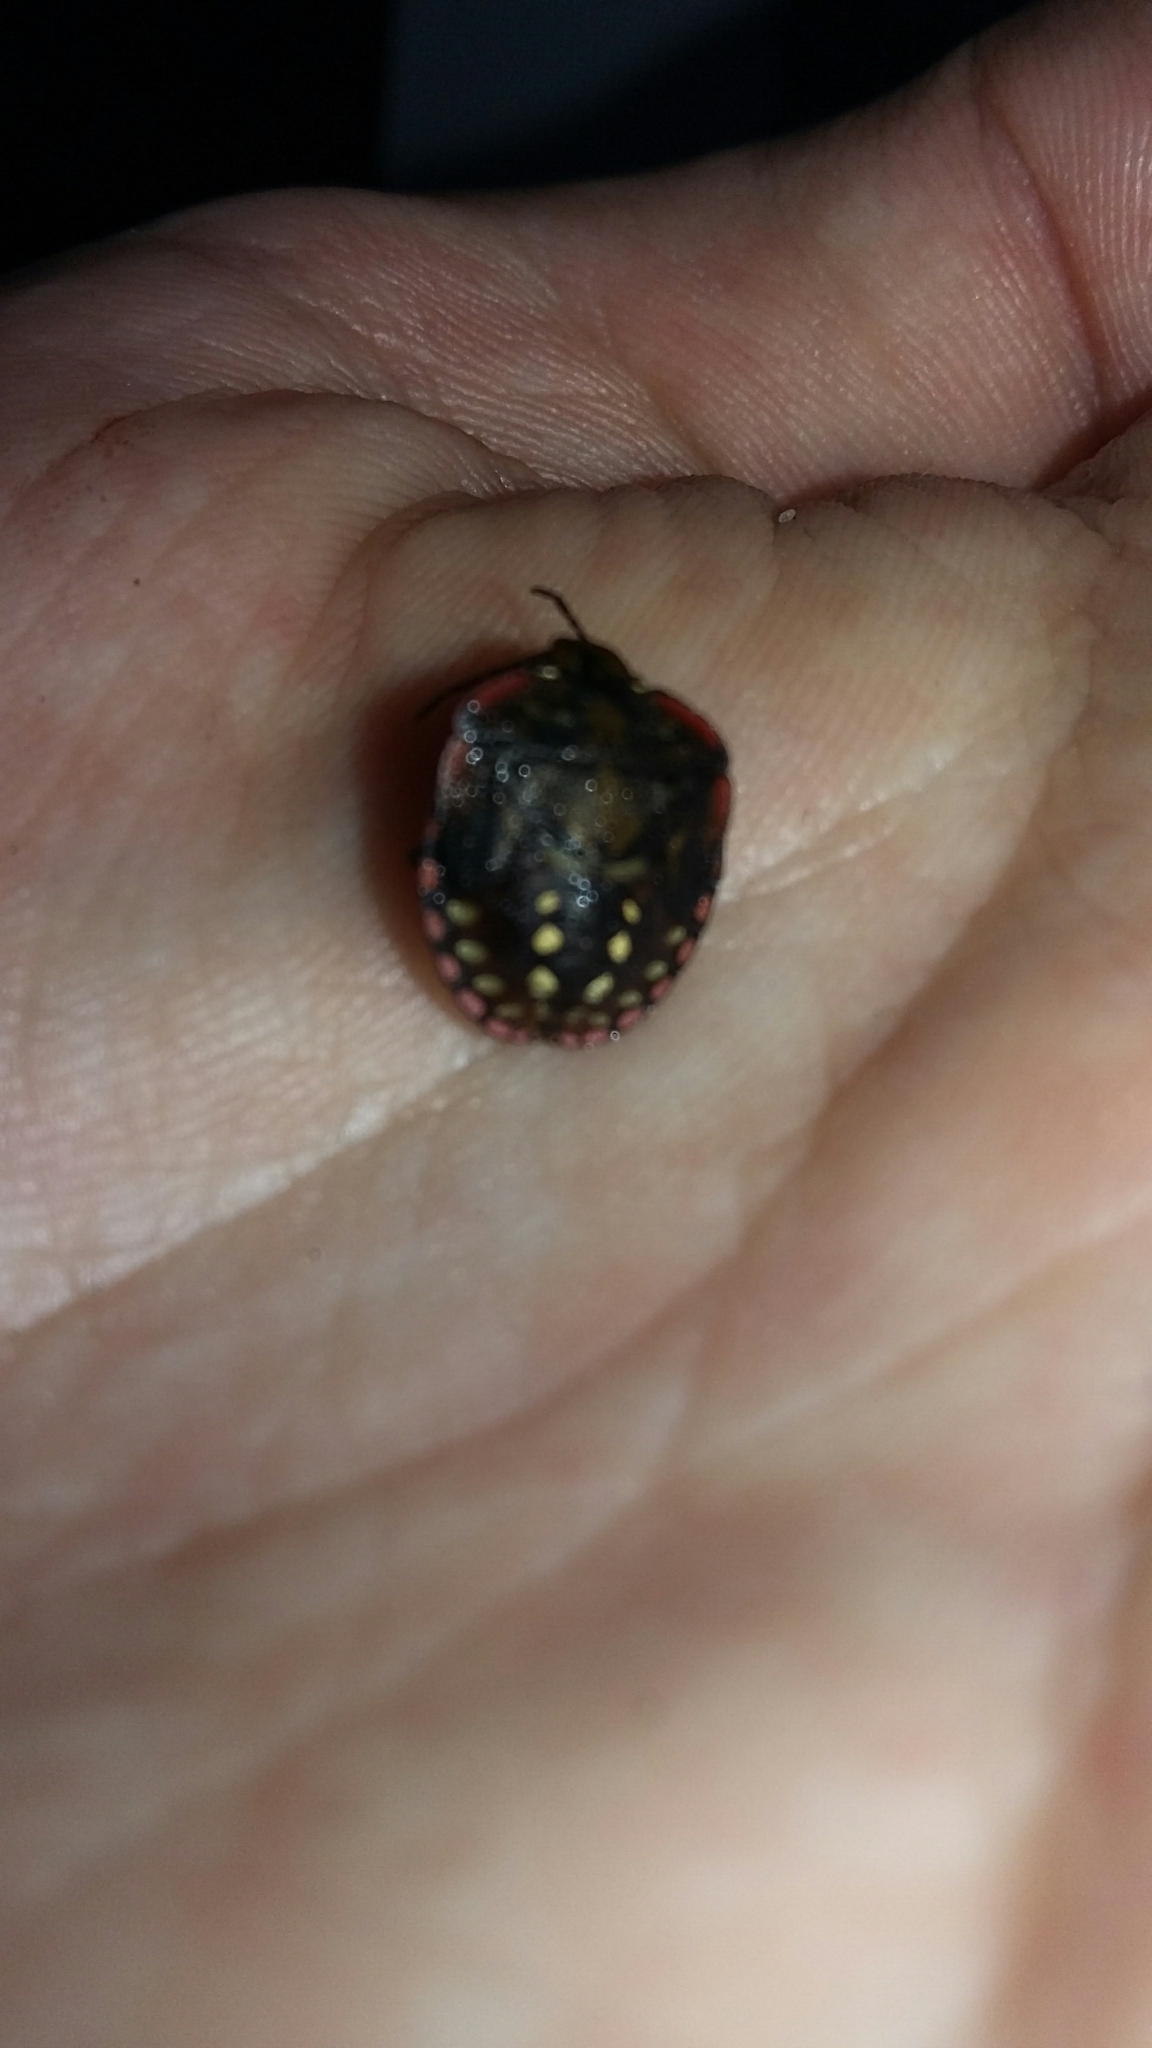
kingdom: Animalia
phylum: Arthropoda
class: Insecta
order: Hemiptera
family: Pentatomidae
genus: Nezara
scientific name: Nezara viridula
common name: Southern green stink bug
